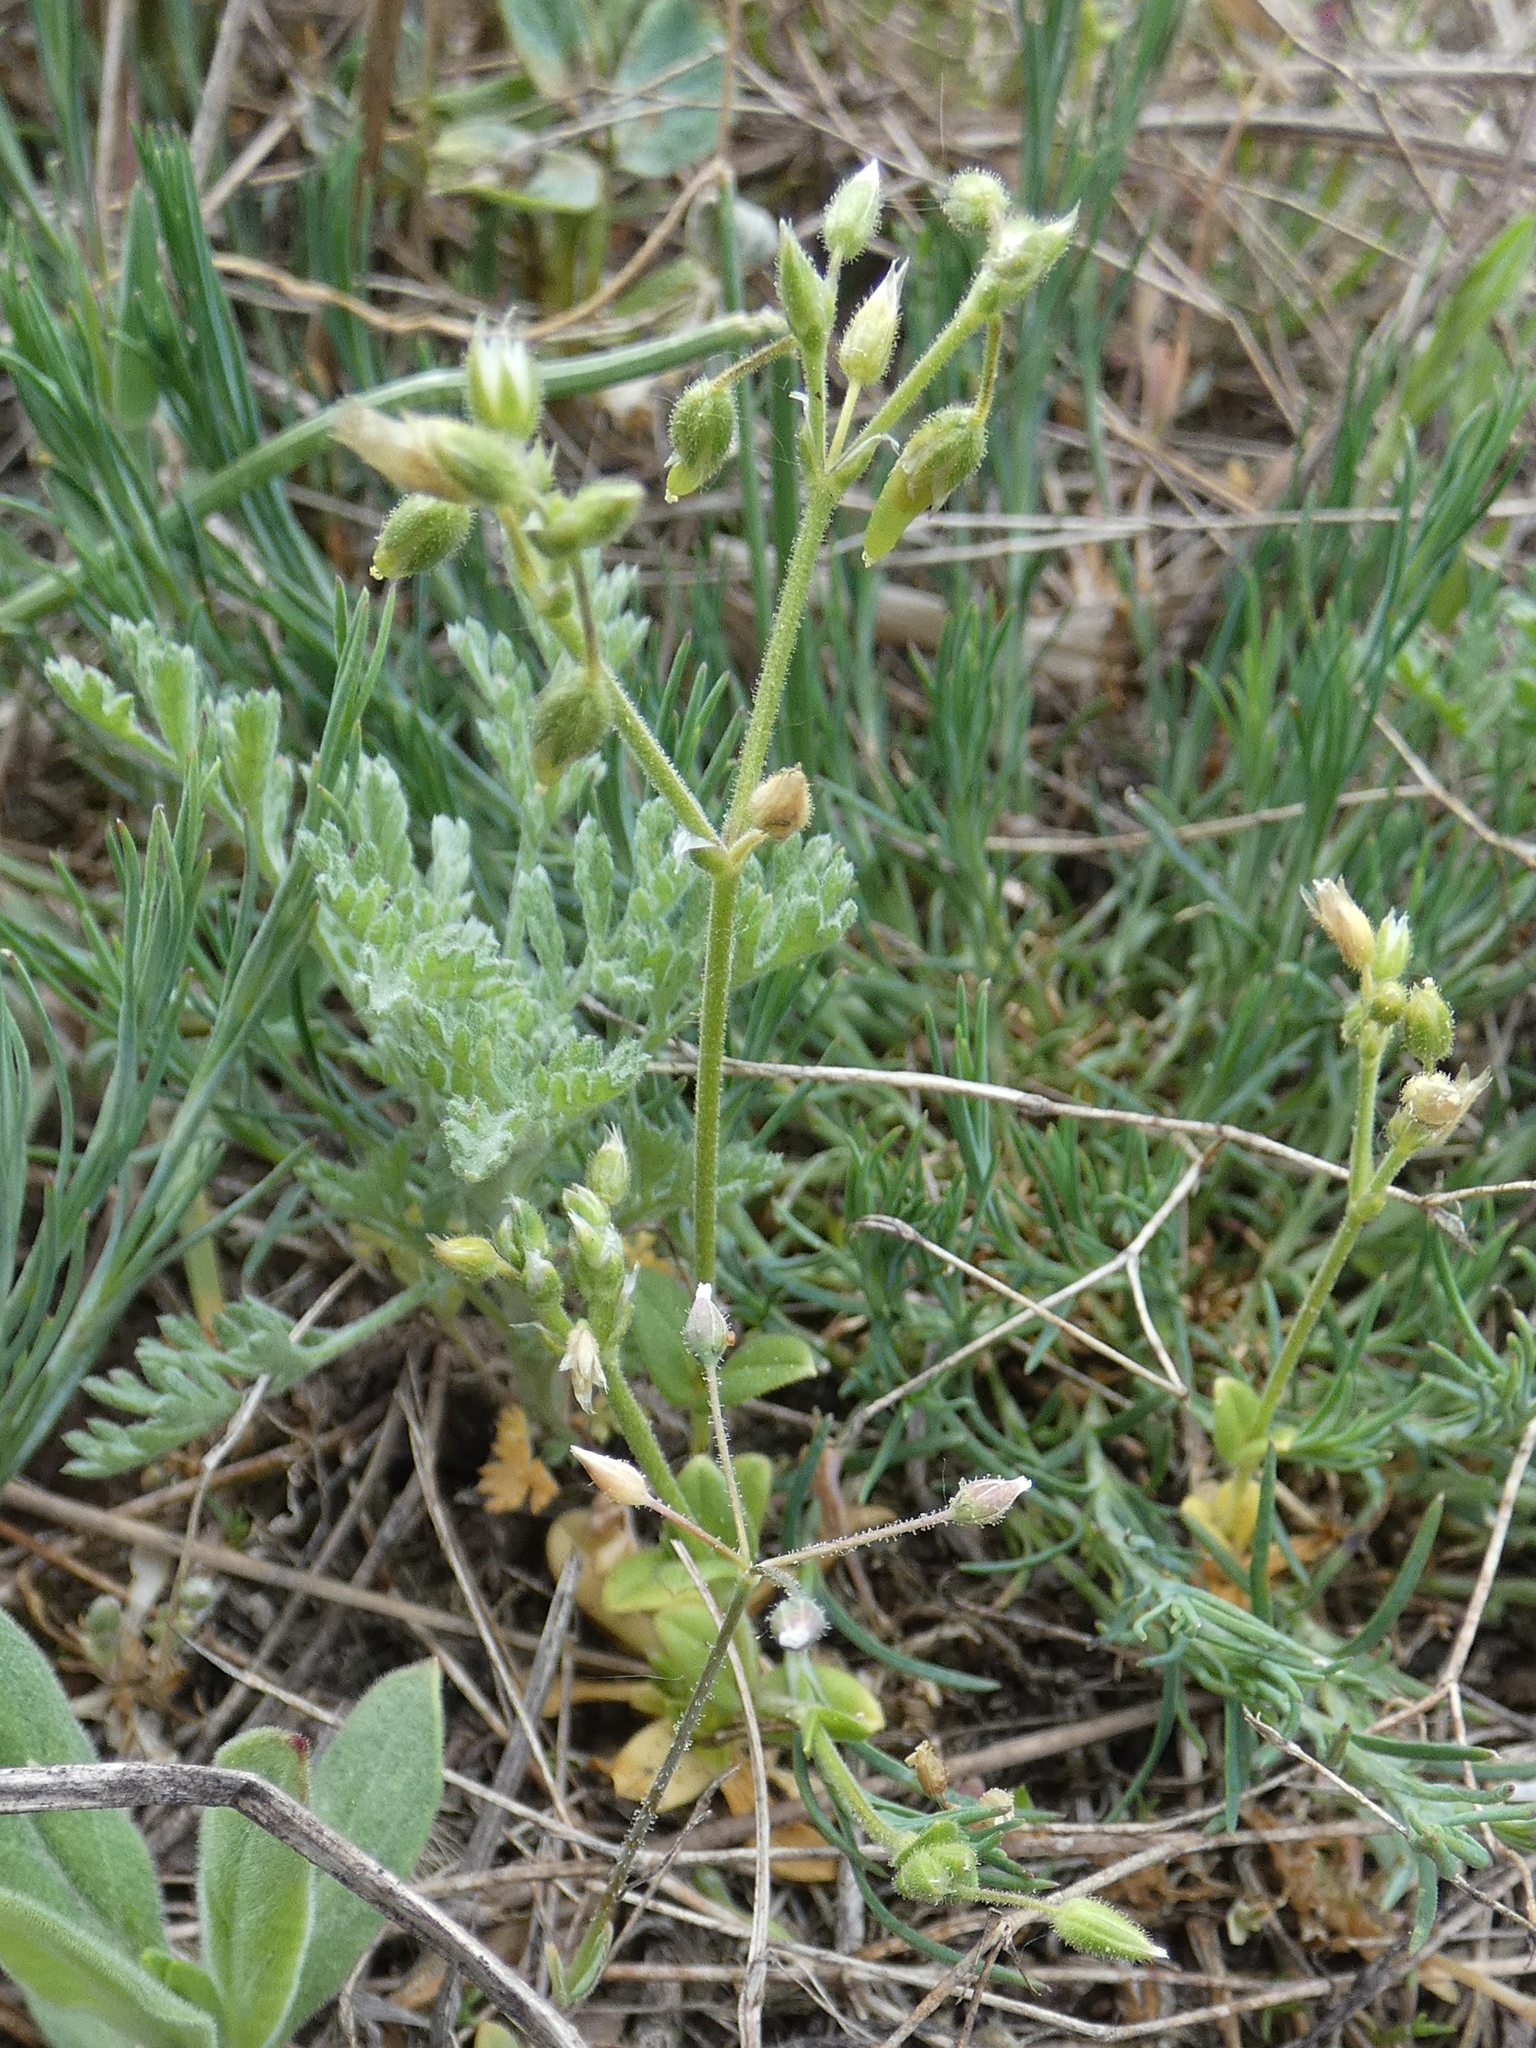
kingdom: Plantae
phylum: Tracheophyta
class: Magnoliopsida
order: Caryophyllales
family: Caryophyllaceae
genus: Cerastium
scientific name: Cerastium semidecandrum
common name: Little mouse-ear
